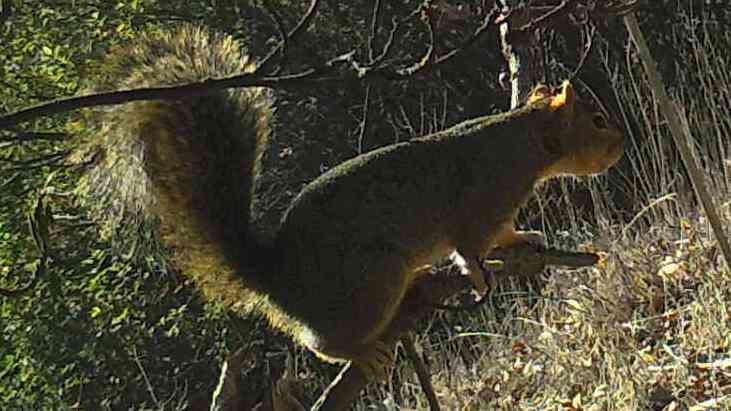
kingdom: Animalia
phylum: Chordata
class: Mammalia
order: Rodentia
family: Sciuridae
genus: Sciurus
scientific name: Sciurus niger
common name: Fox squirrel
